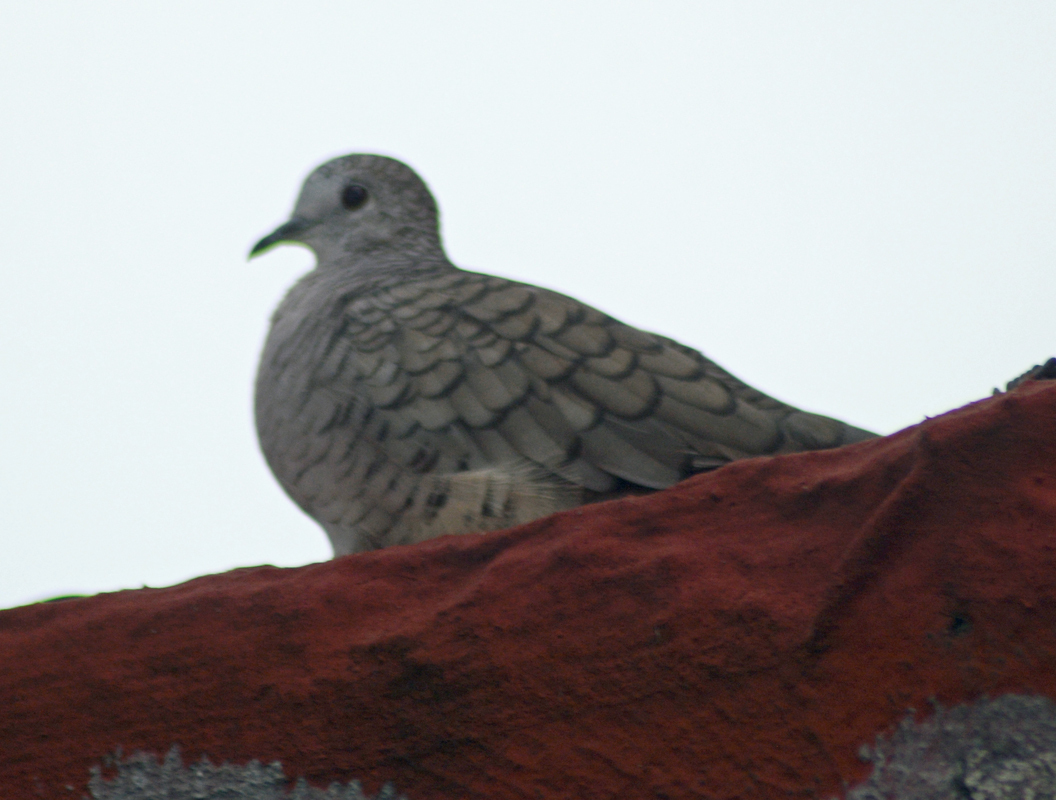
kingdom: Animalia
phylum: Chordata
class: Aves
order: Columbiformes
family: Columbidae
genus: Columbina
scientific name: Columbina inca
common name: Inca dove
